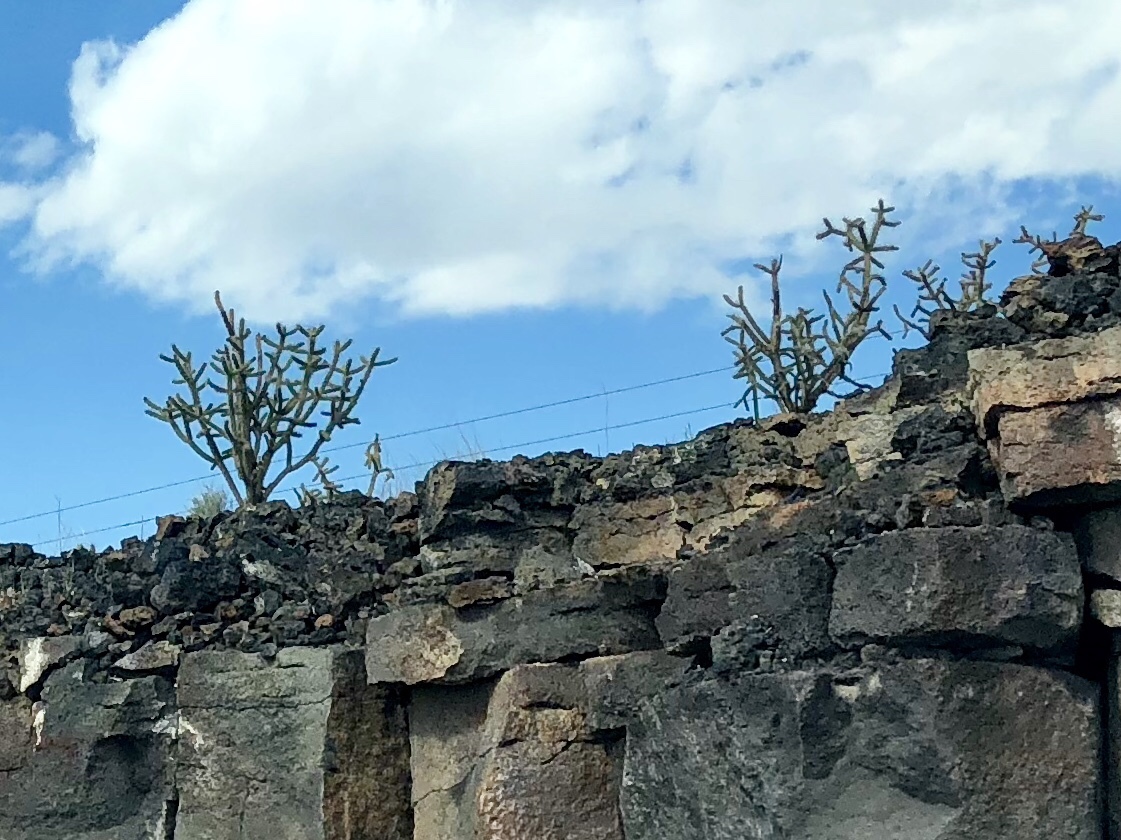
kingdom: Plantae
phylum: Tracheophyta
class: Magnoliopsida
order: Caryophyllales
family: Cactaceae
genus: Cylindropuntia
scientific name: Cylindropuntia imbricata
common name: Candelabrum cactus
